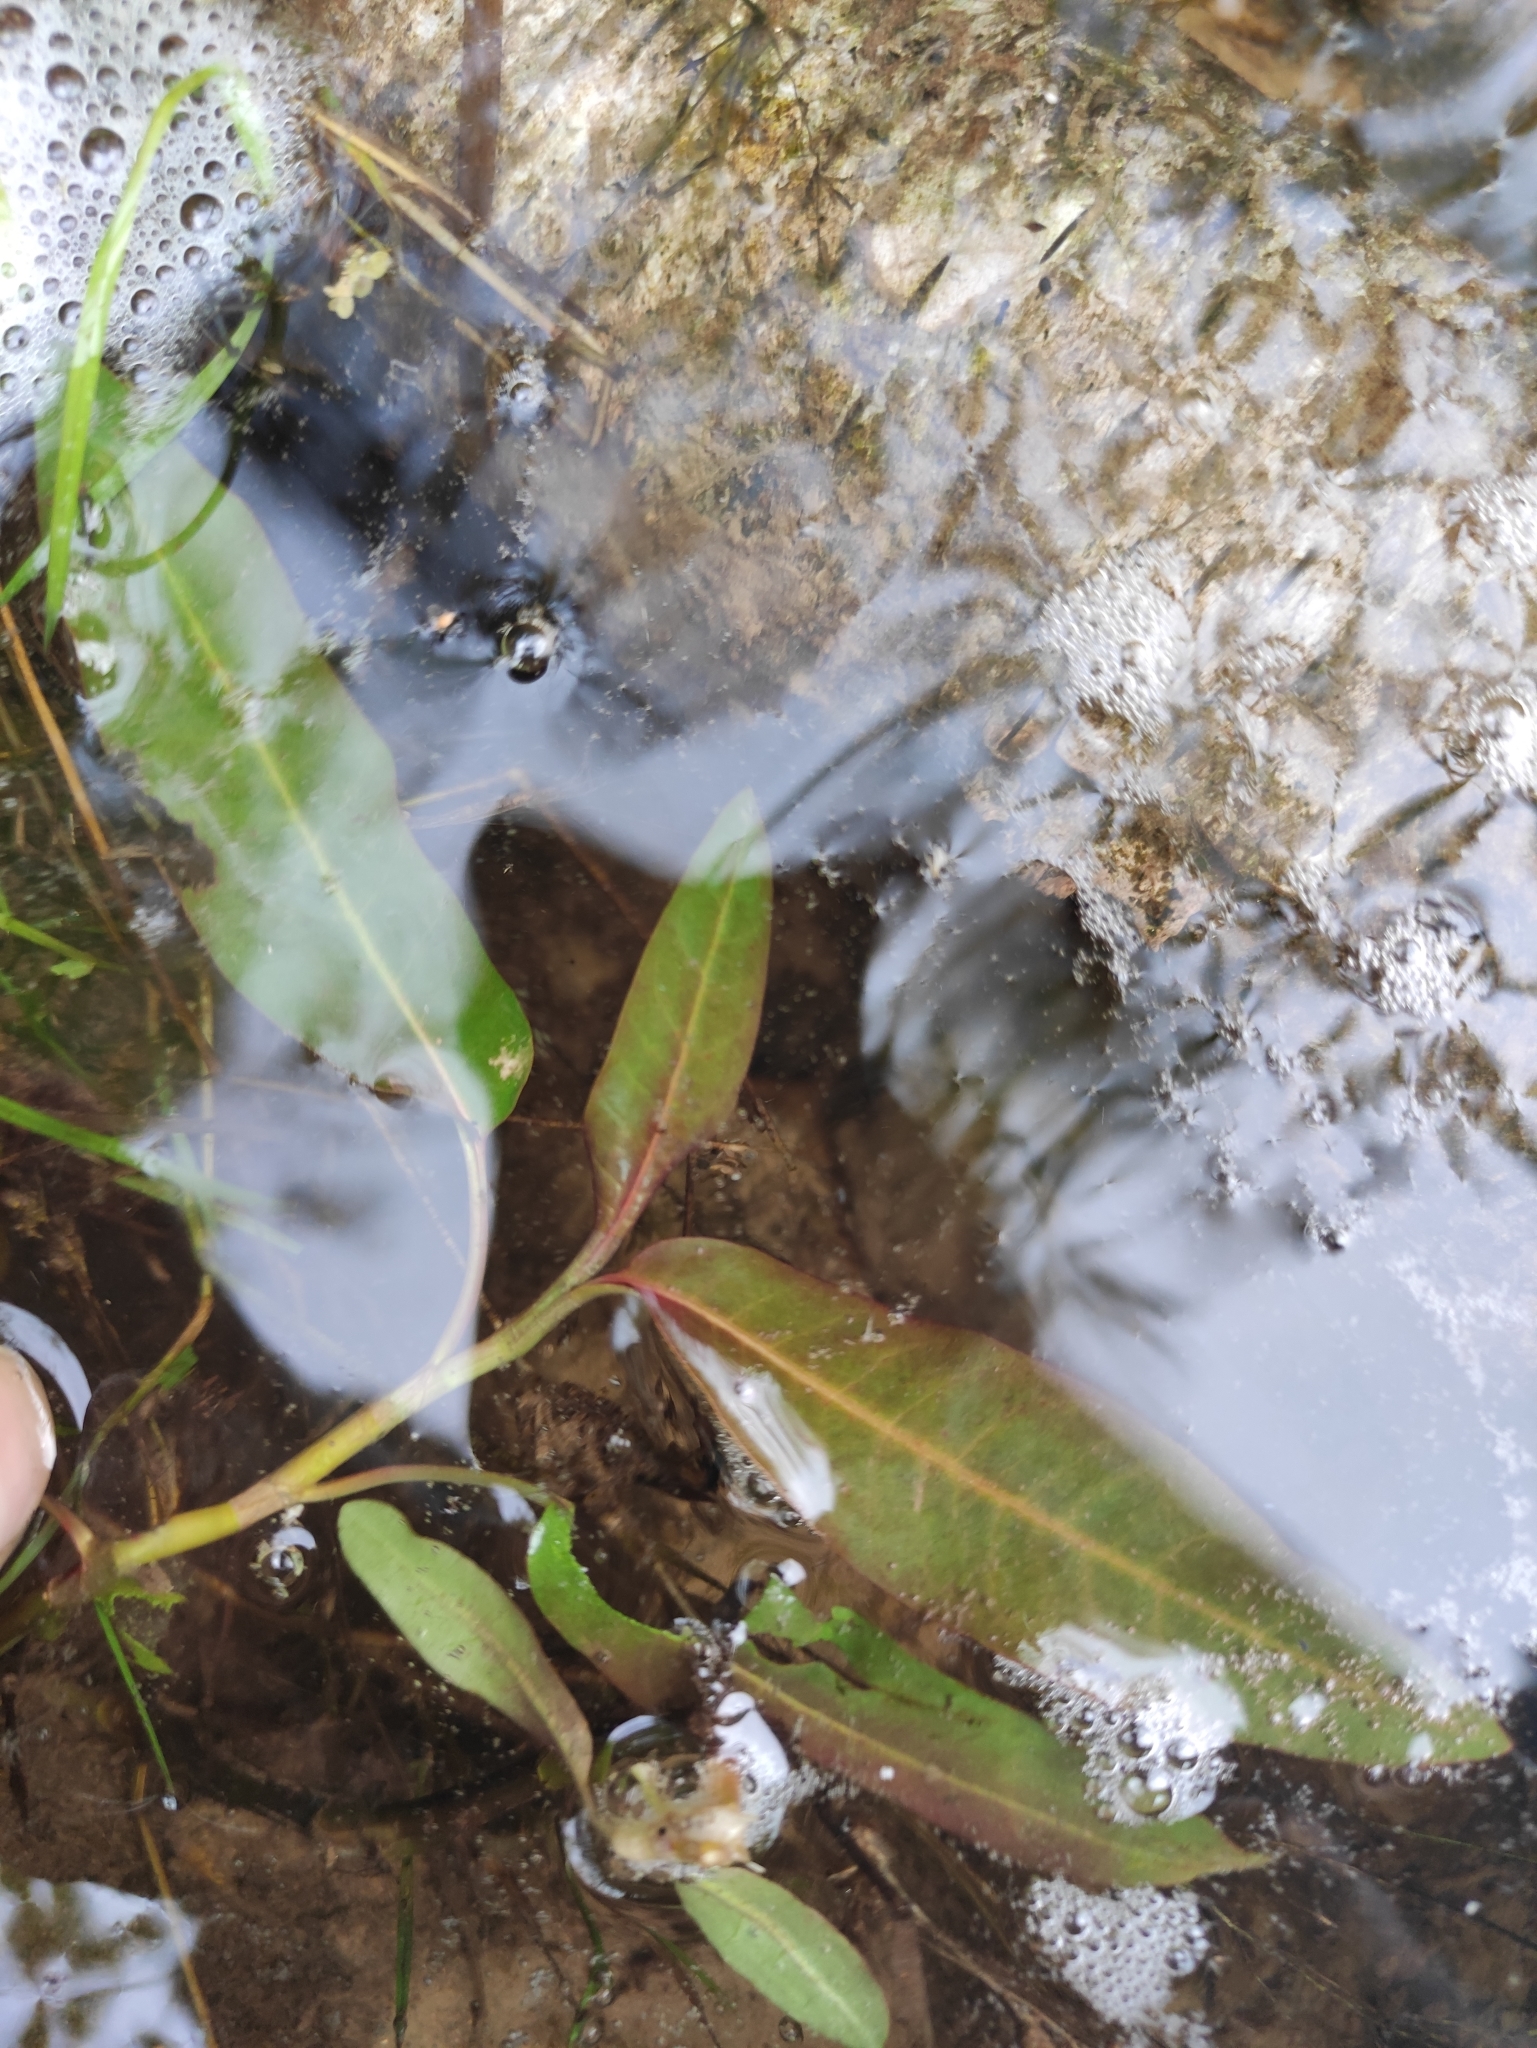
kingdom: Plantae
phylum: Tracheophyta
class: Magnoliopsida
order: Caryophyllales
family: Polygonaceae
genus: Persicaria
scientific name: Persicaria amphibia
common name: Amphibious bistort
